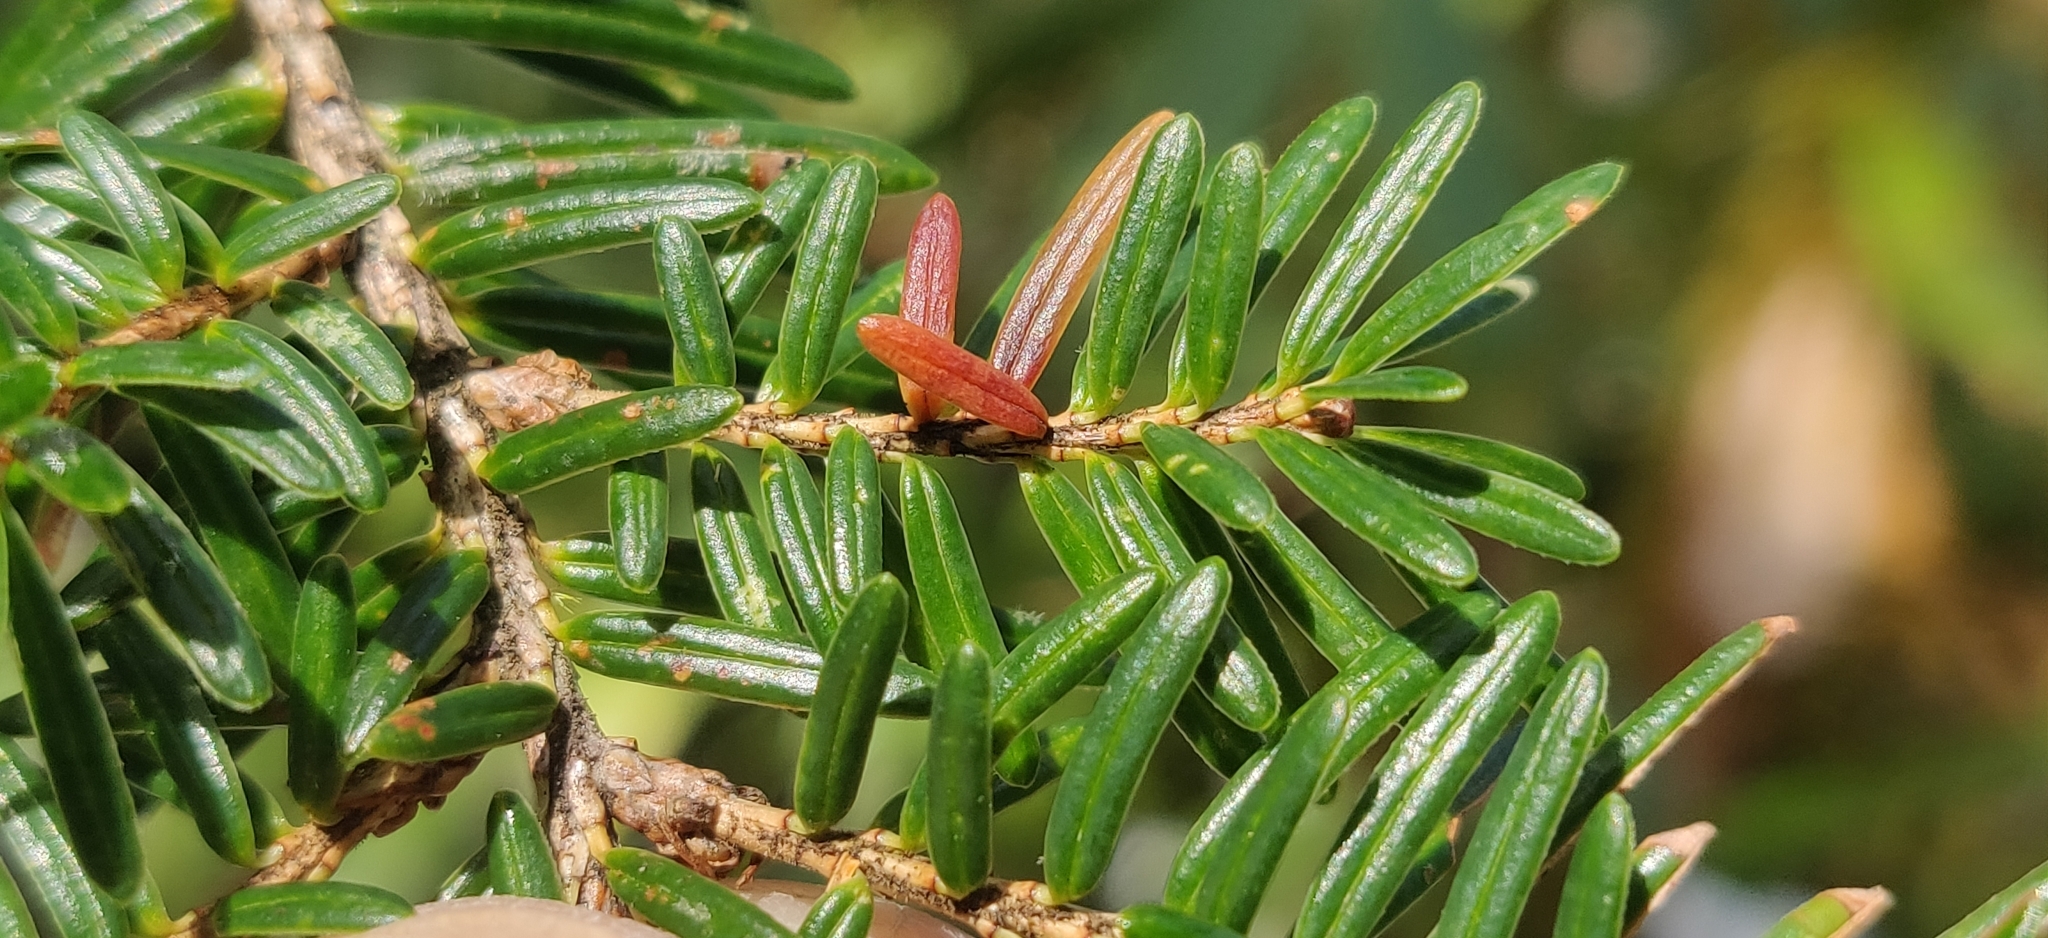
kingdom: Plantae
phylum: Tracheophyta
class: Pinopsida
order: Pinales
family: Pinaceae
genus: Tsuga
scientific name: Tsuga dumosa
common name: Himalayan hemlock
